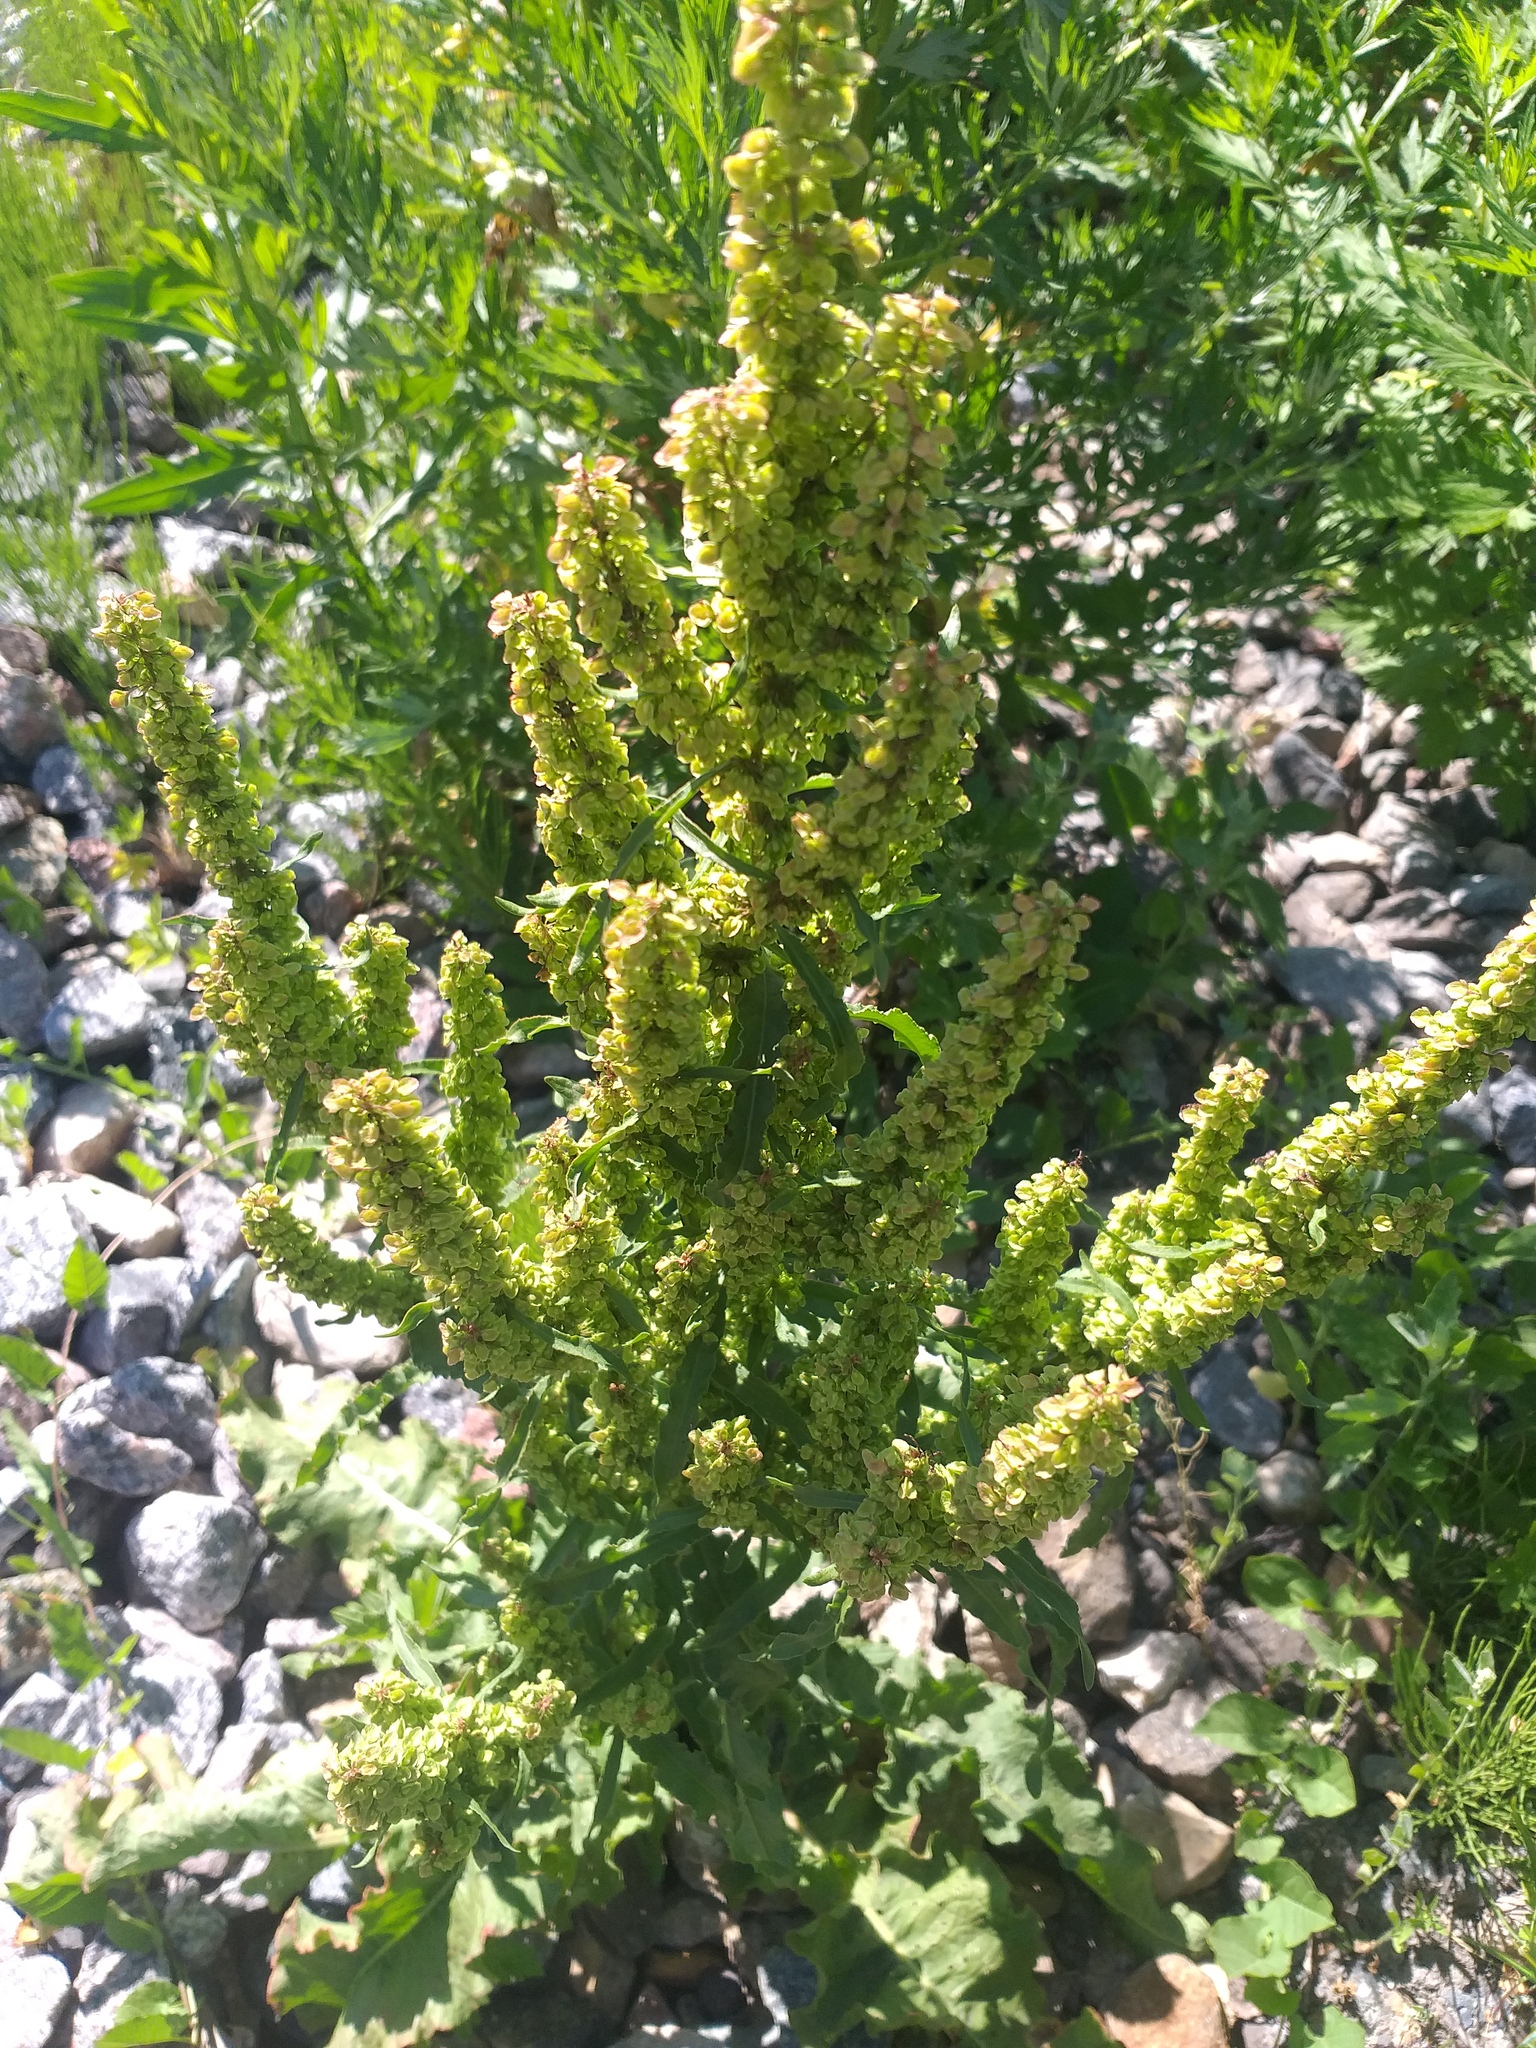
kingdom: Plantae
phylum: Tracheophyta
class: Magnoliopsida
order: Caryophyllales
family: Polygonaceae
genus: Rumex
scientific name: Rumex crispus
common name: Curled dock
